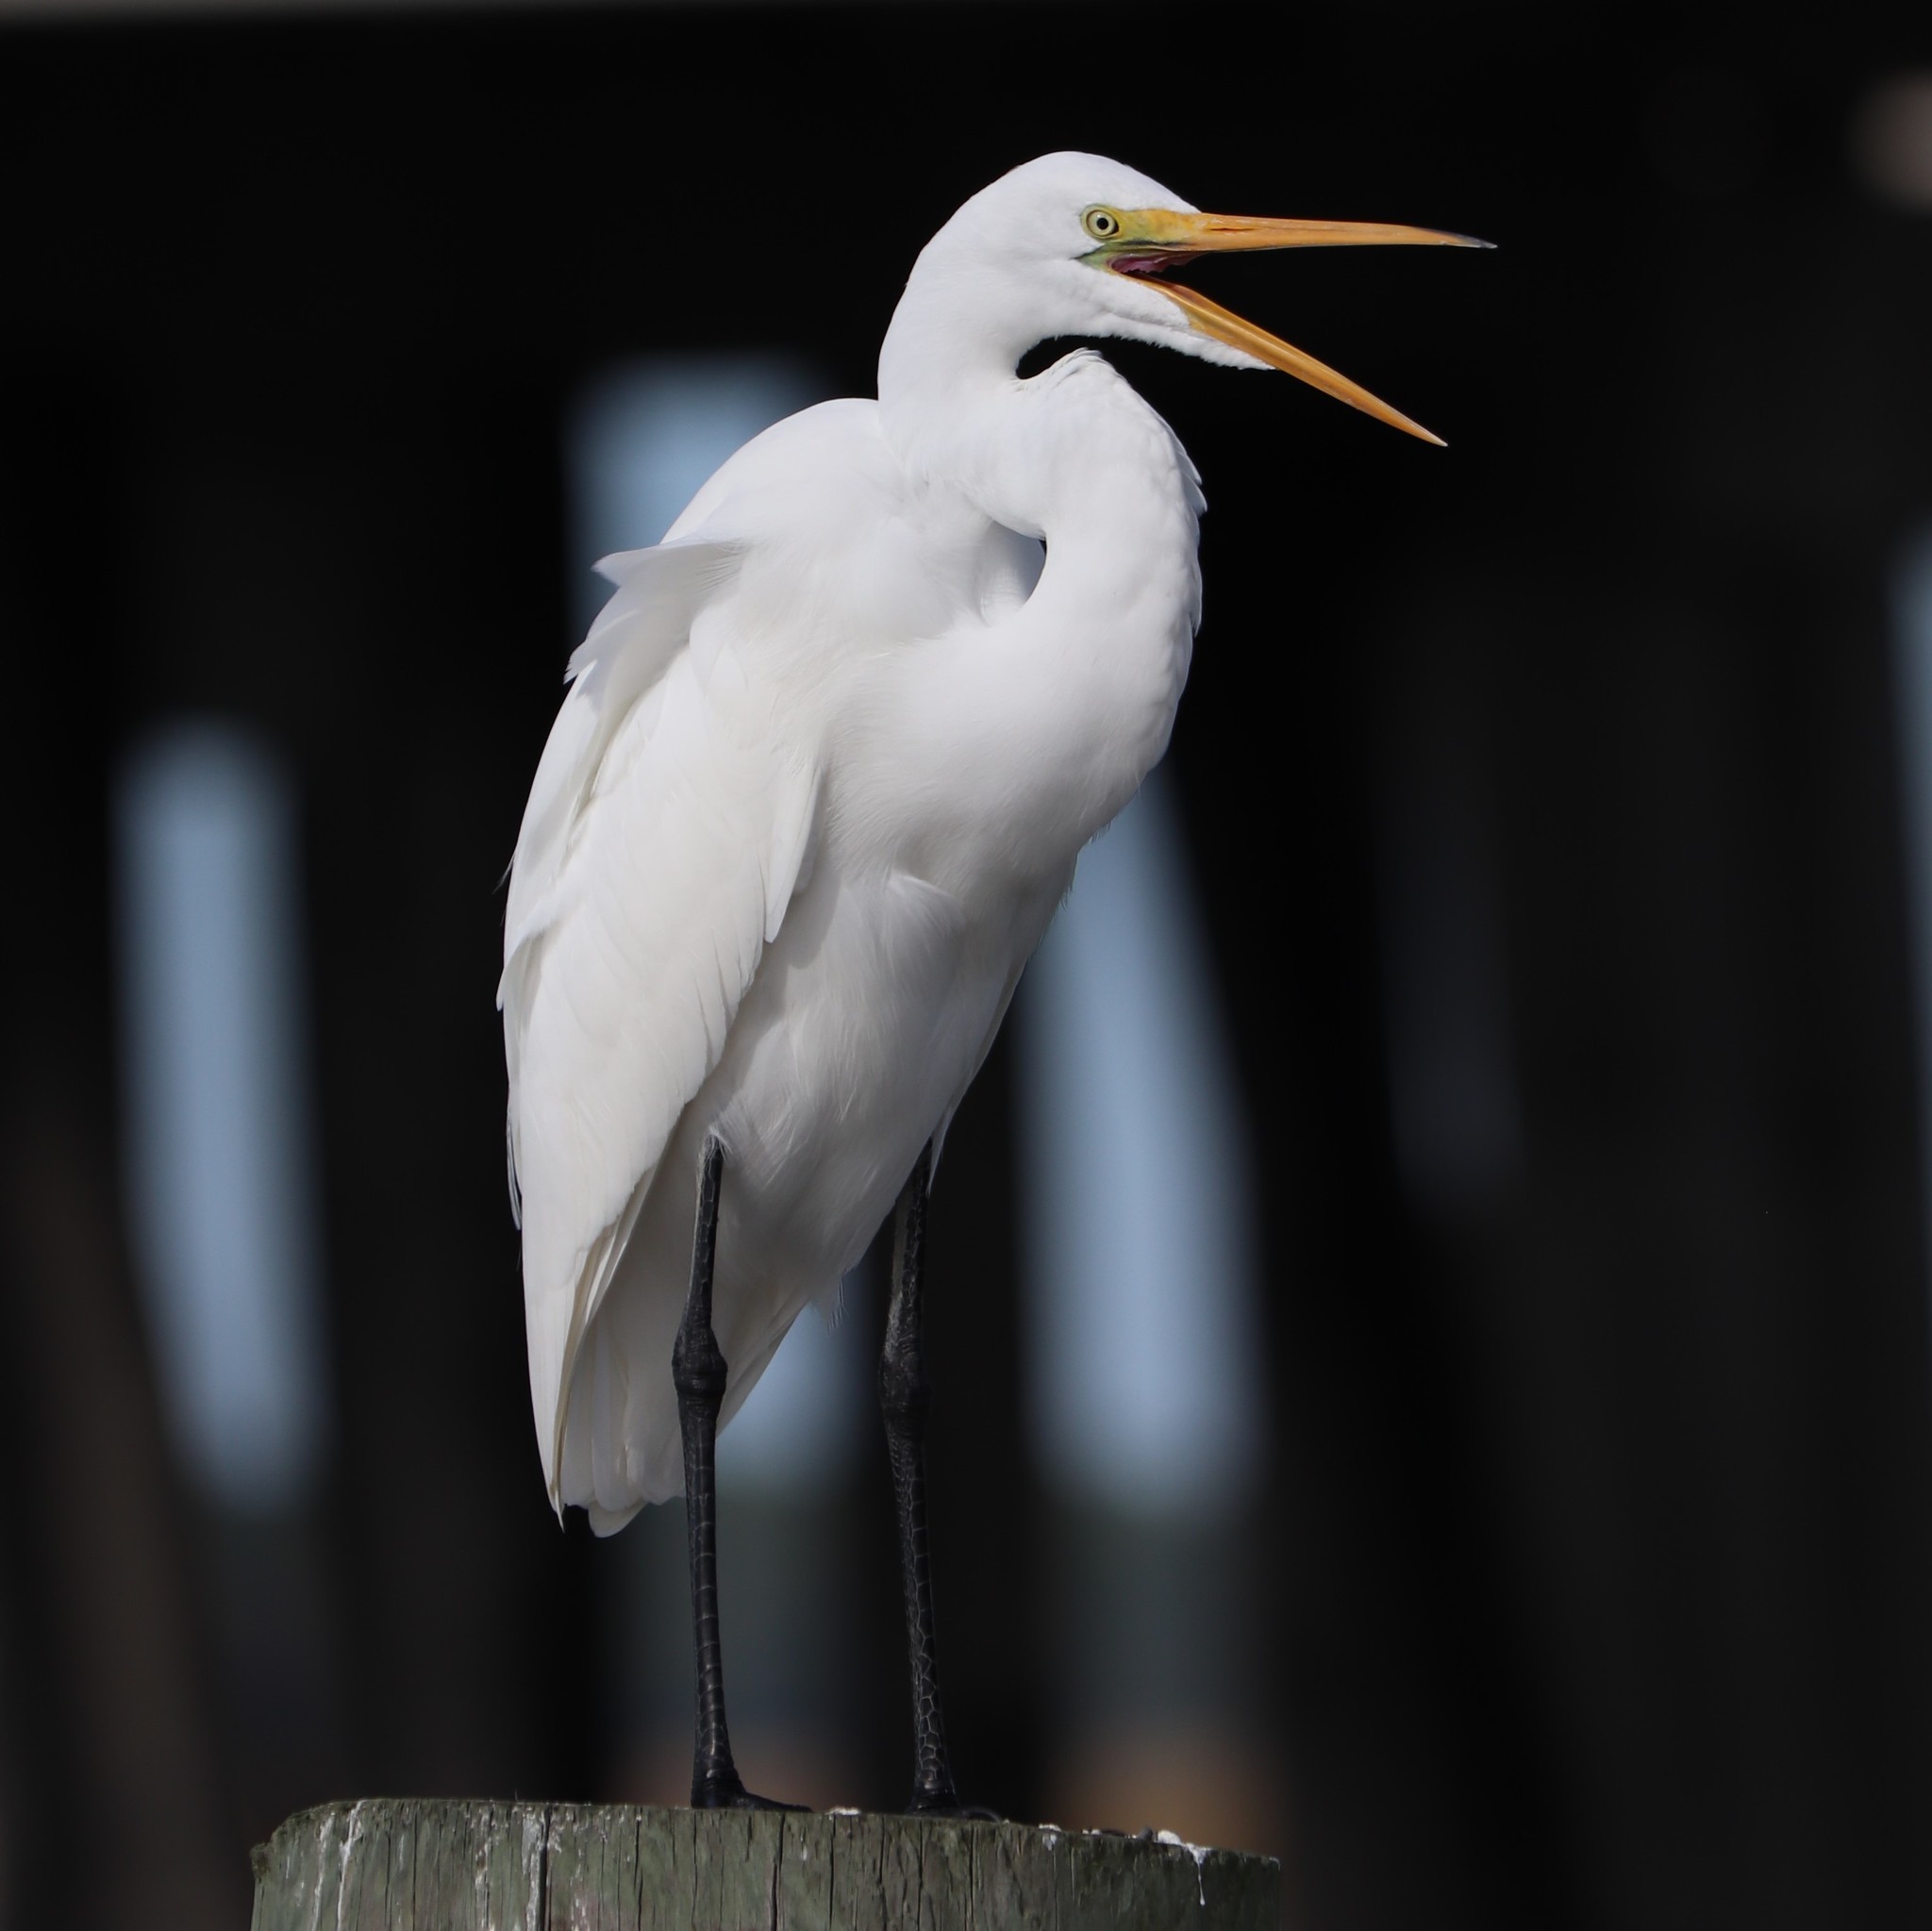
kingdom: Animalia
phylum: Chordata
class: Aves
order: Pelecaniformes
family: Ardeidae
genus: Ardea
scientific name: Ardea alba
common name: Great egret
